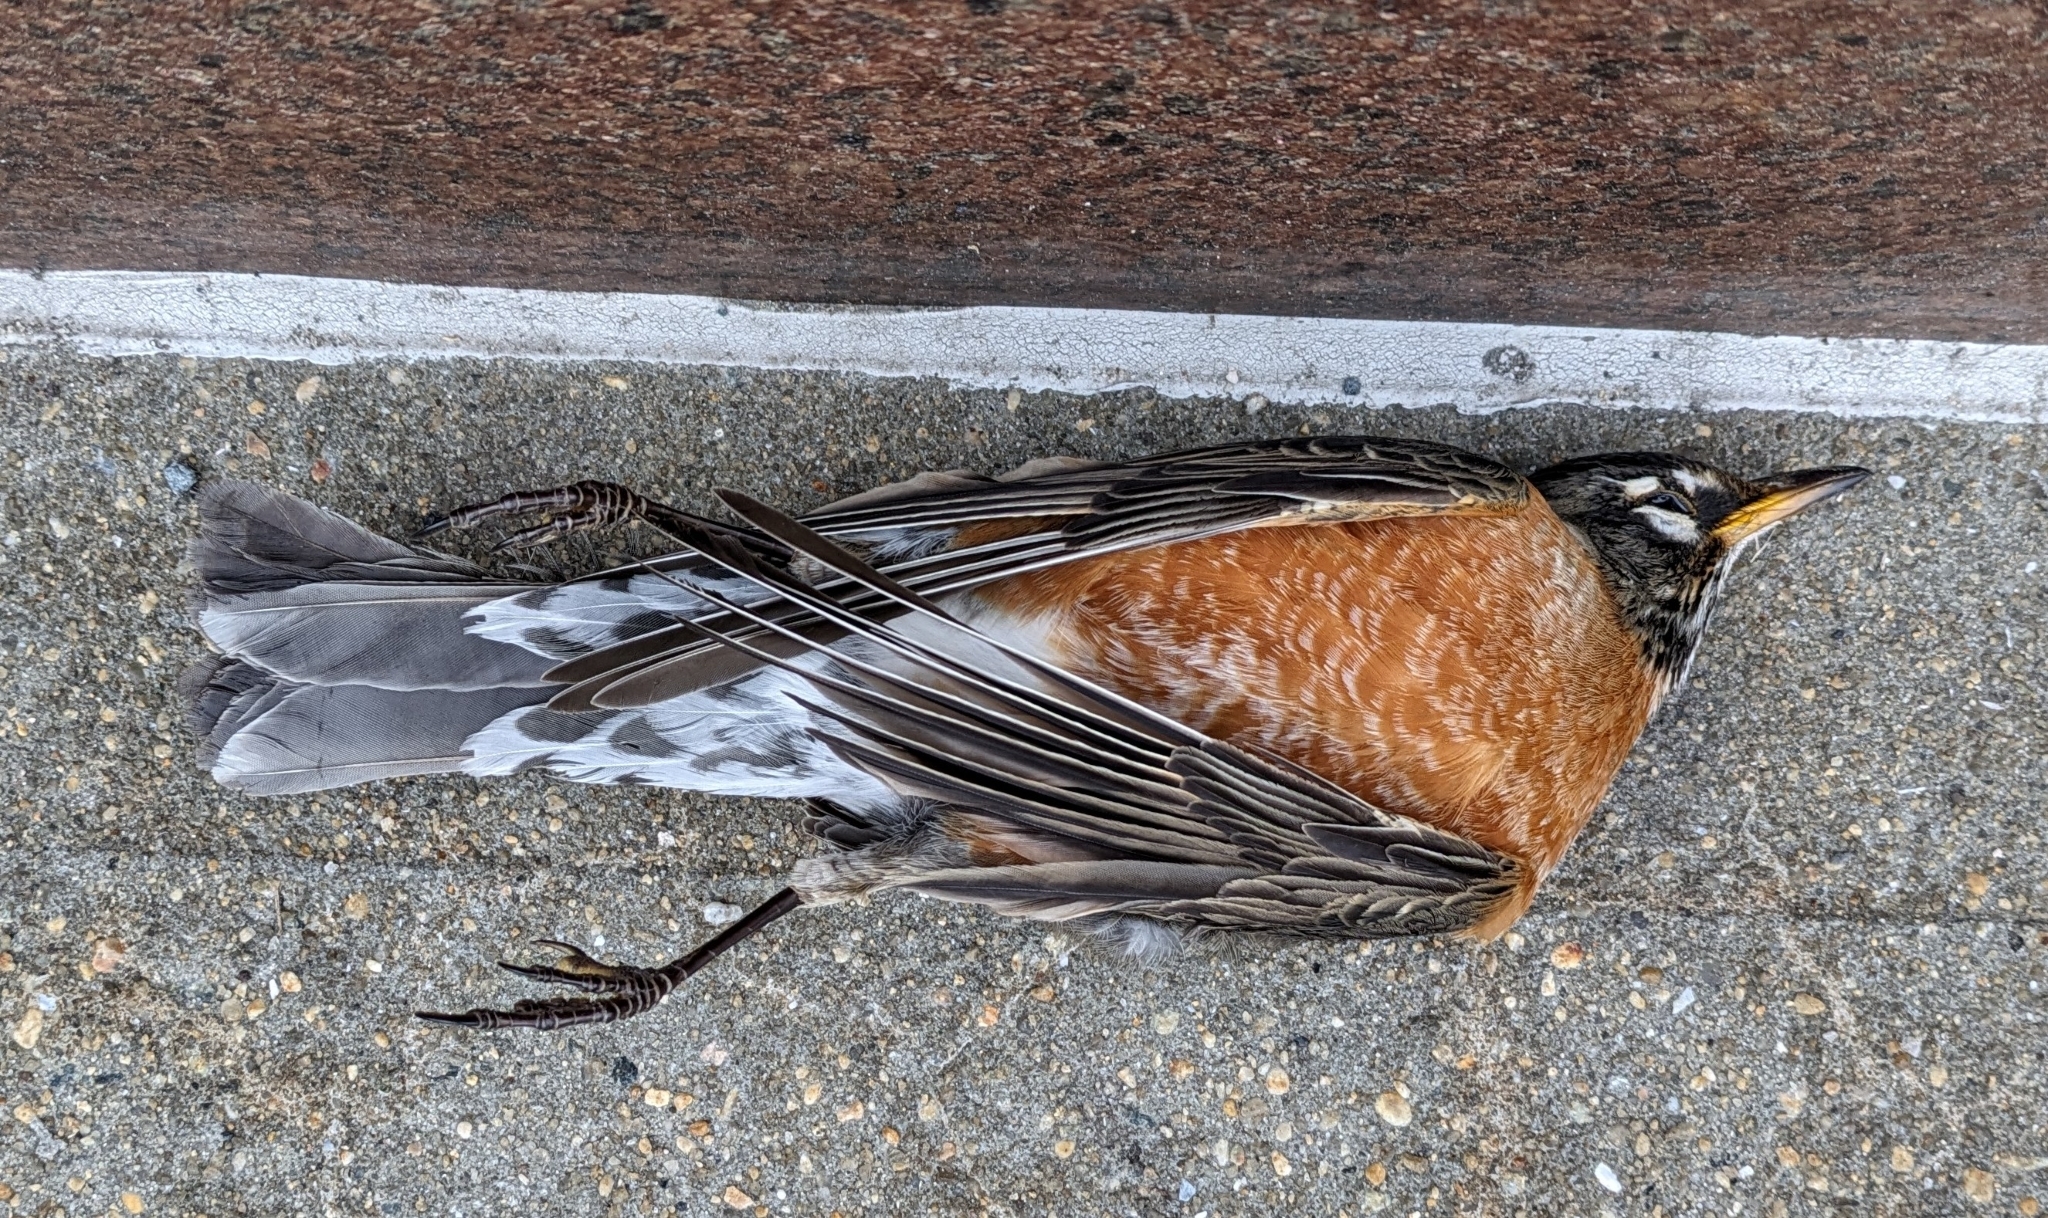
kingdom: Animalia
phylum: Chordata
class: Aves
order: Passeriformes
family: Turdidae
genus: Turdus
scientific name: Turdus migratorius
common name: American robin
